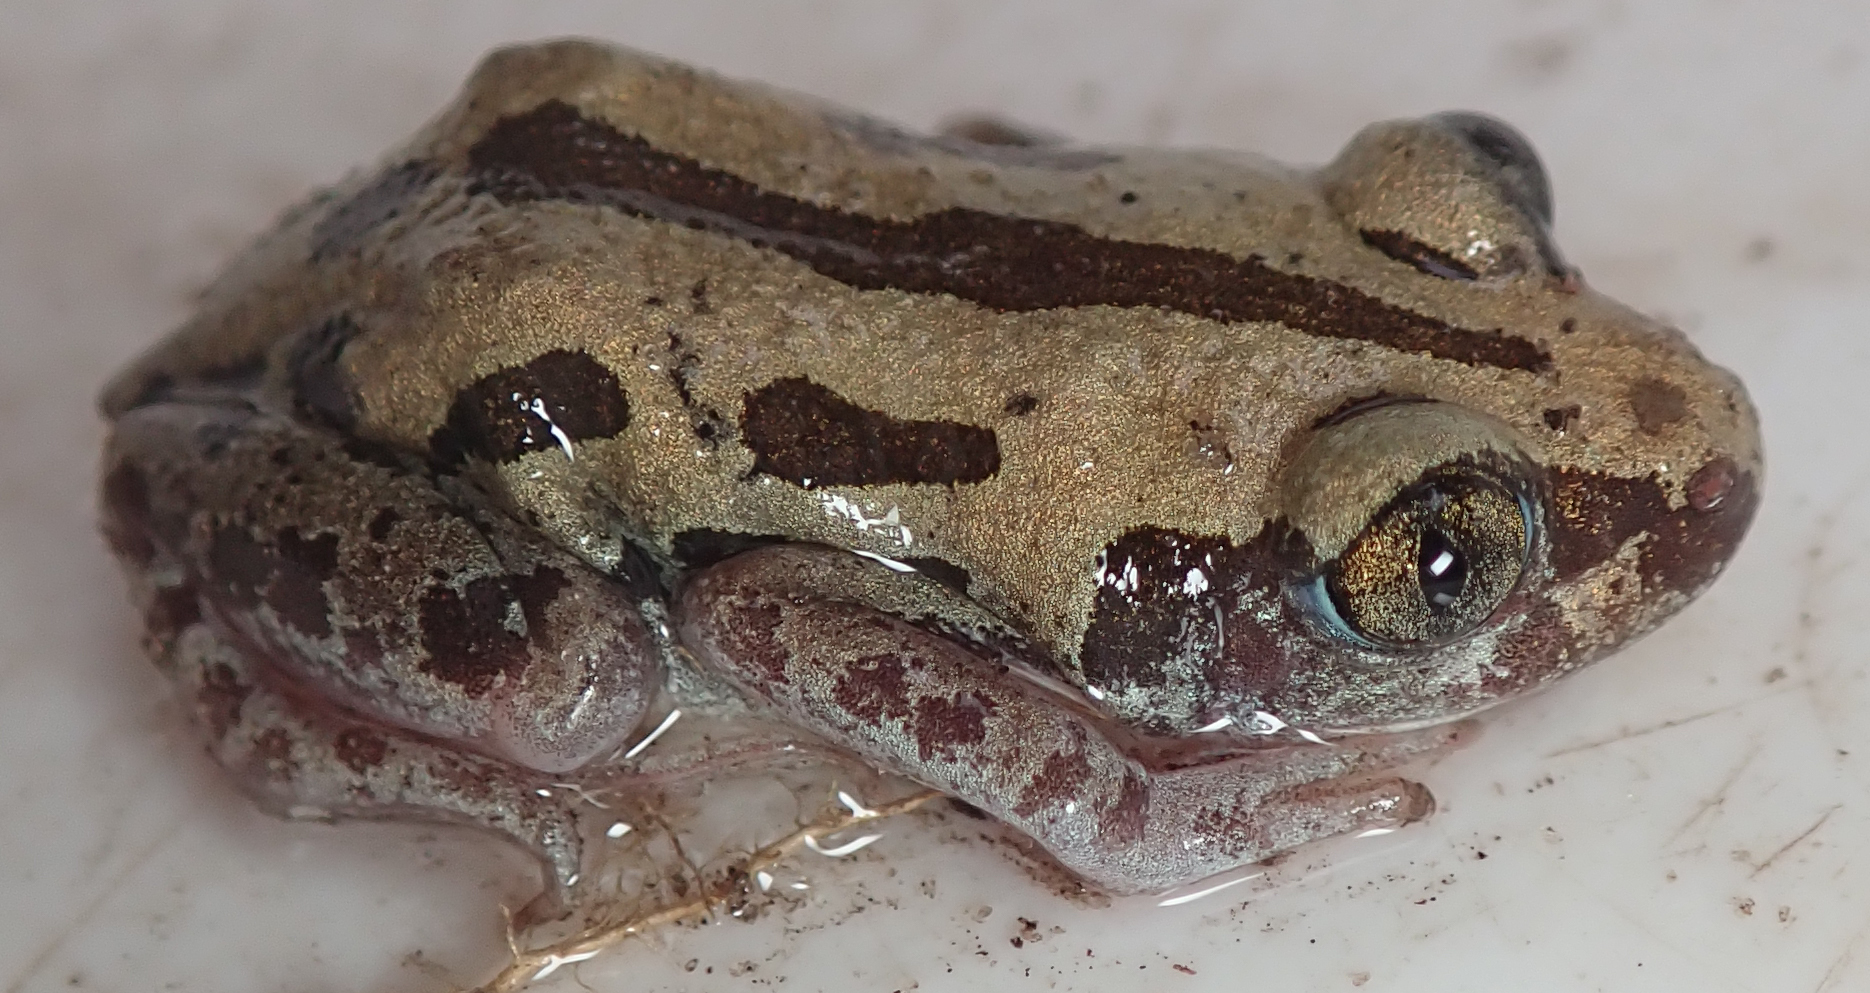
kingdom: Animalia
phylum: Chordata
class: Amphibia
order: Anura
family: Hyperoliidae
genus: Kassina
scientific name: Kassina senegalensis
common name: Senegal land frog
